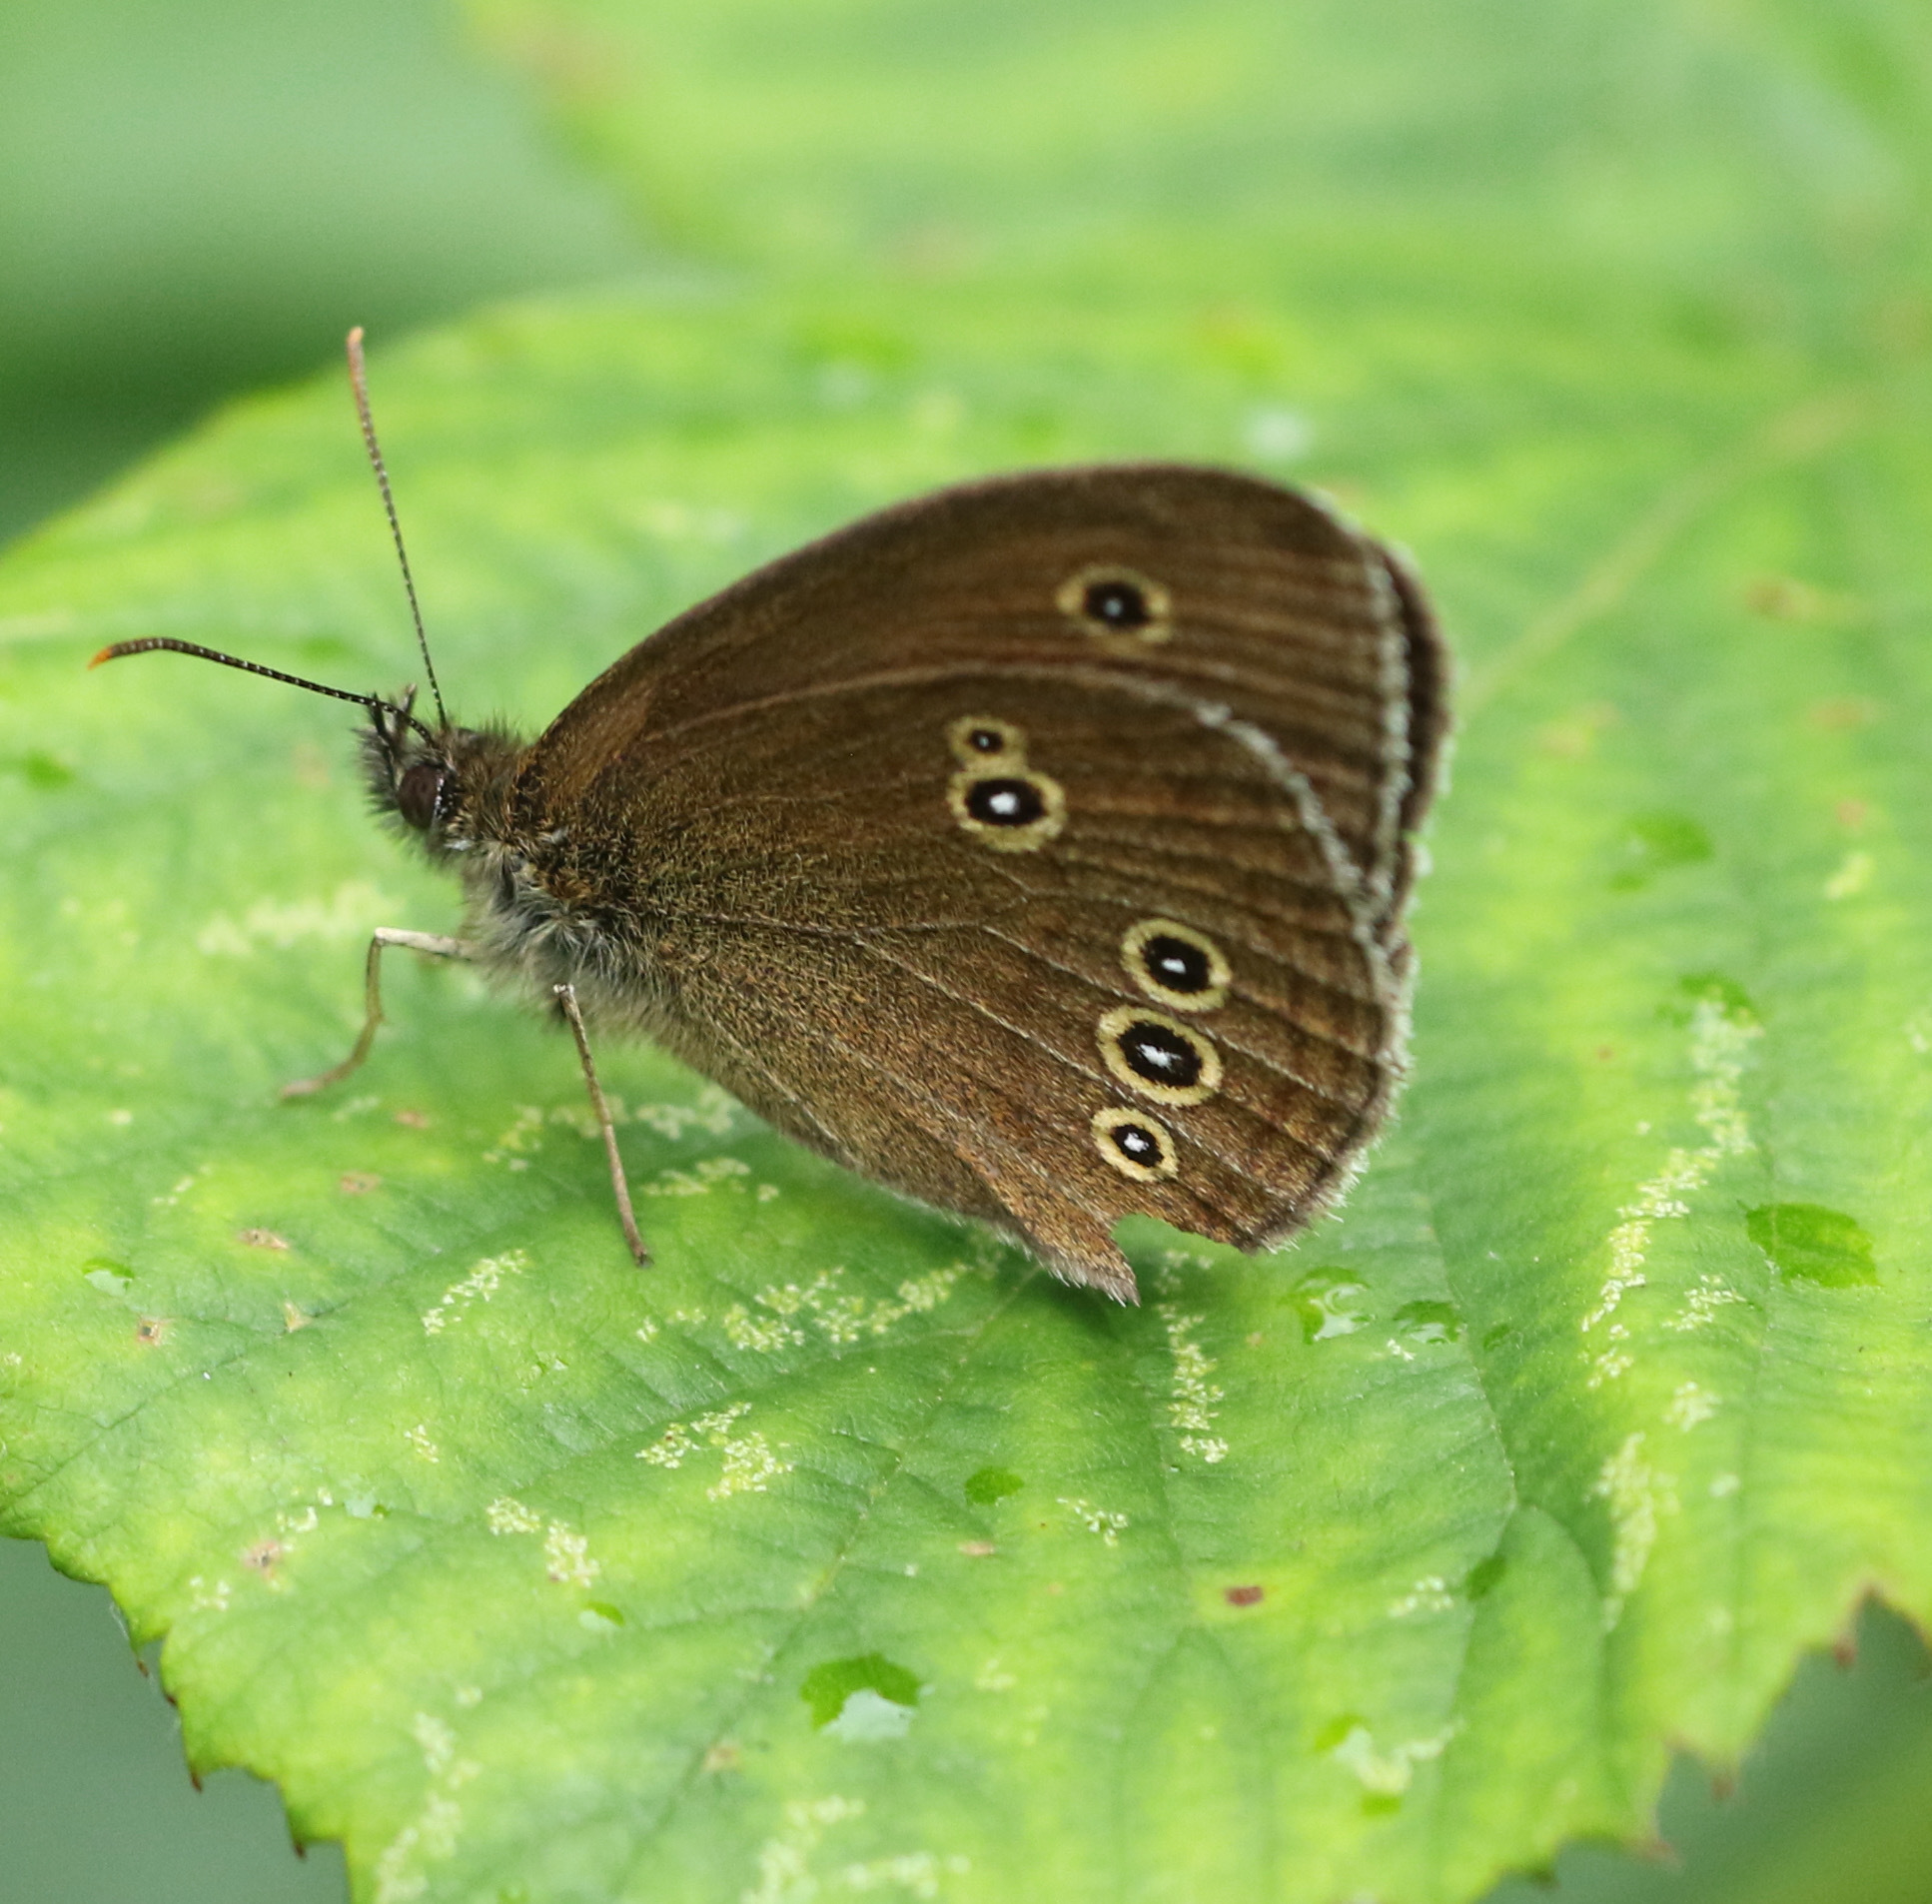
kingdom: Animalia
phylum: Arthropoda
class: Insecta
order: Lepidoptera
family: Nymphalidae
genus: Aphantopus
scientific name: Aphantopus hyperantus
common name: Ringlet
